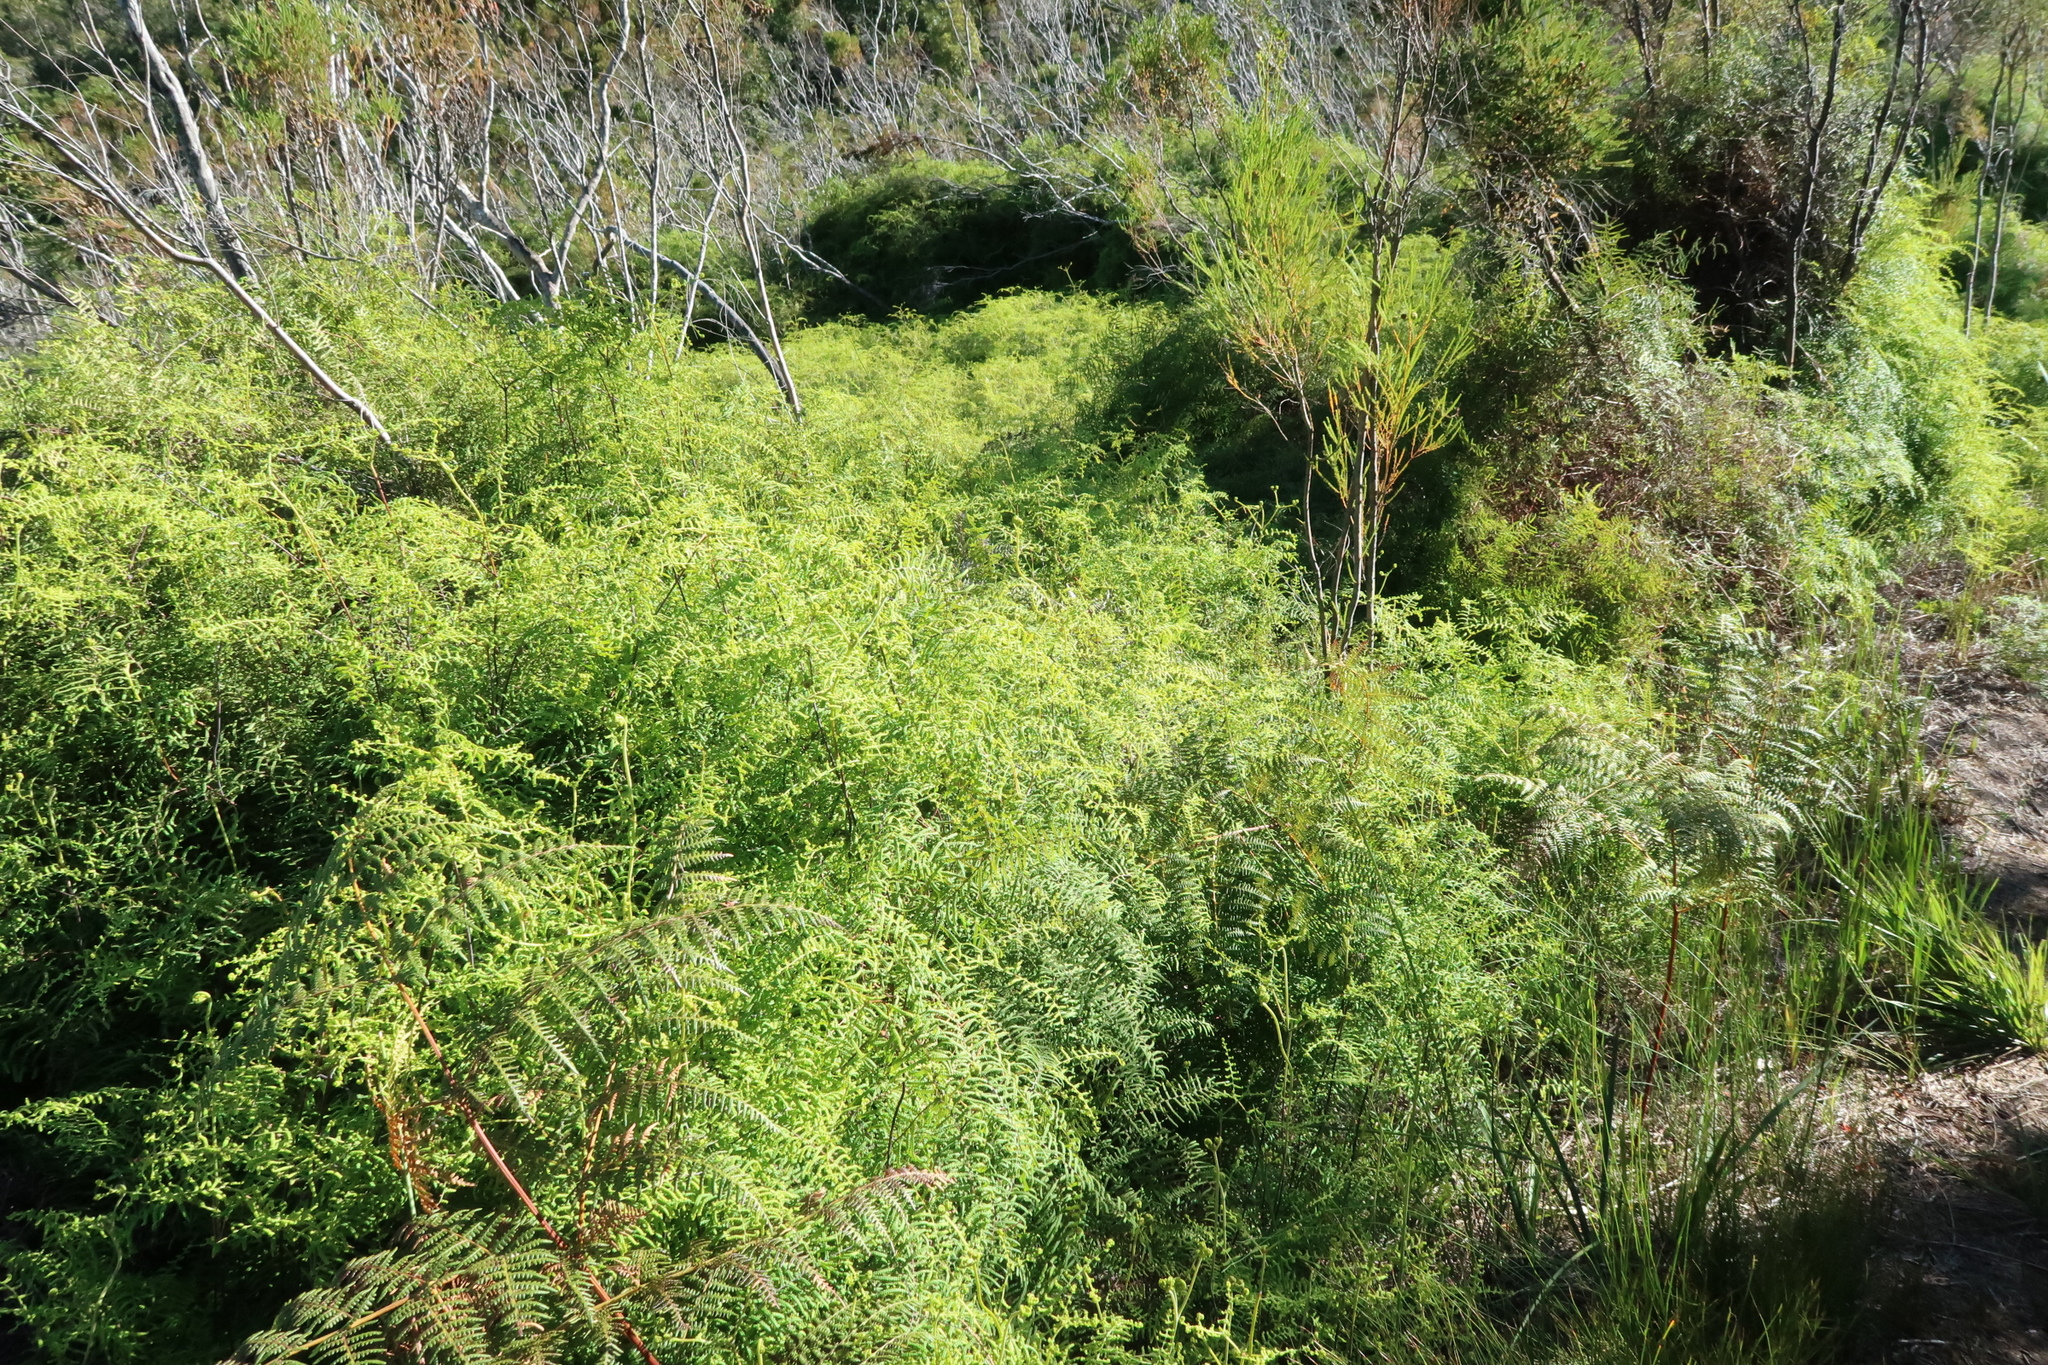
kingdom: Plantae
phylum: Tracheophyta
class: Polypodiopsida
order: Gleicheniales
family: Gleicheniaceae
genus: Gleichenia
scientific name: Gleichenia polypodioides
